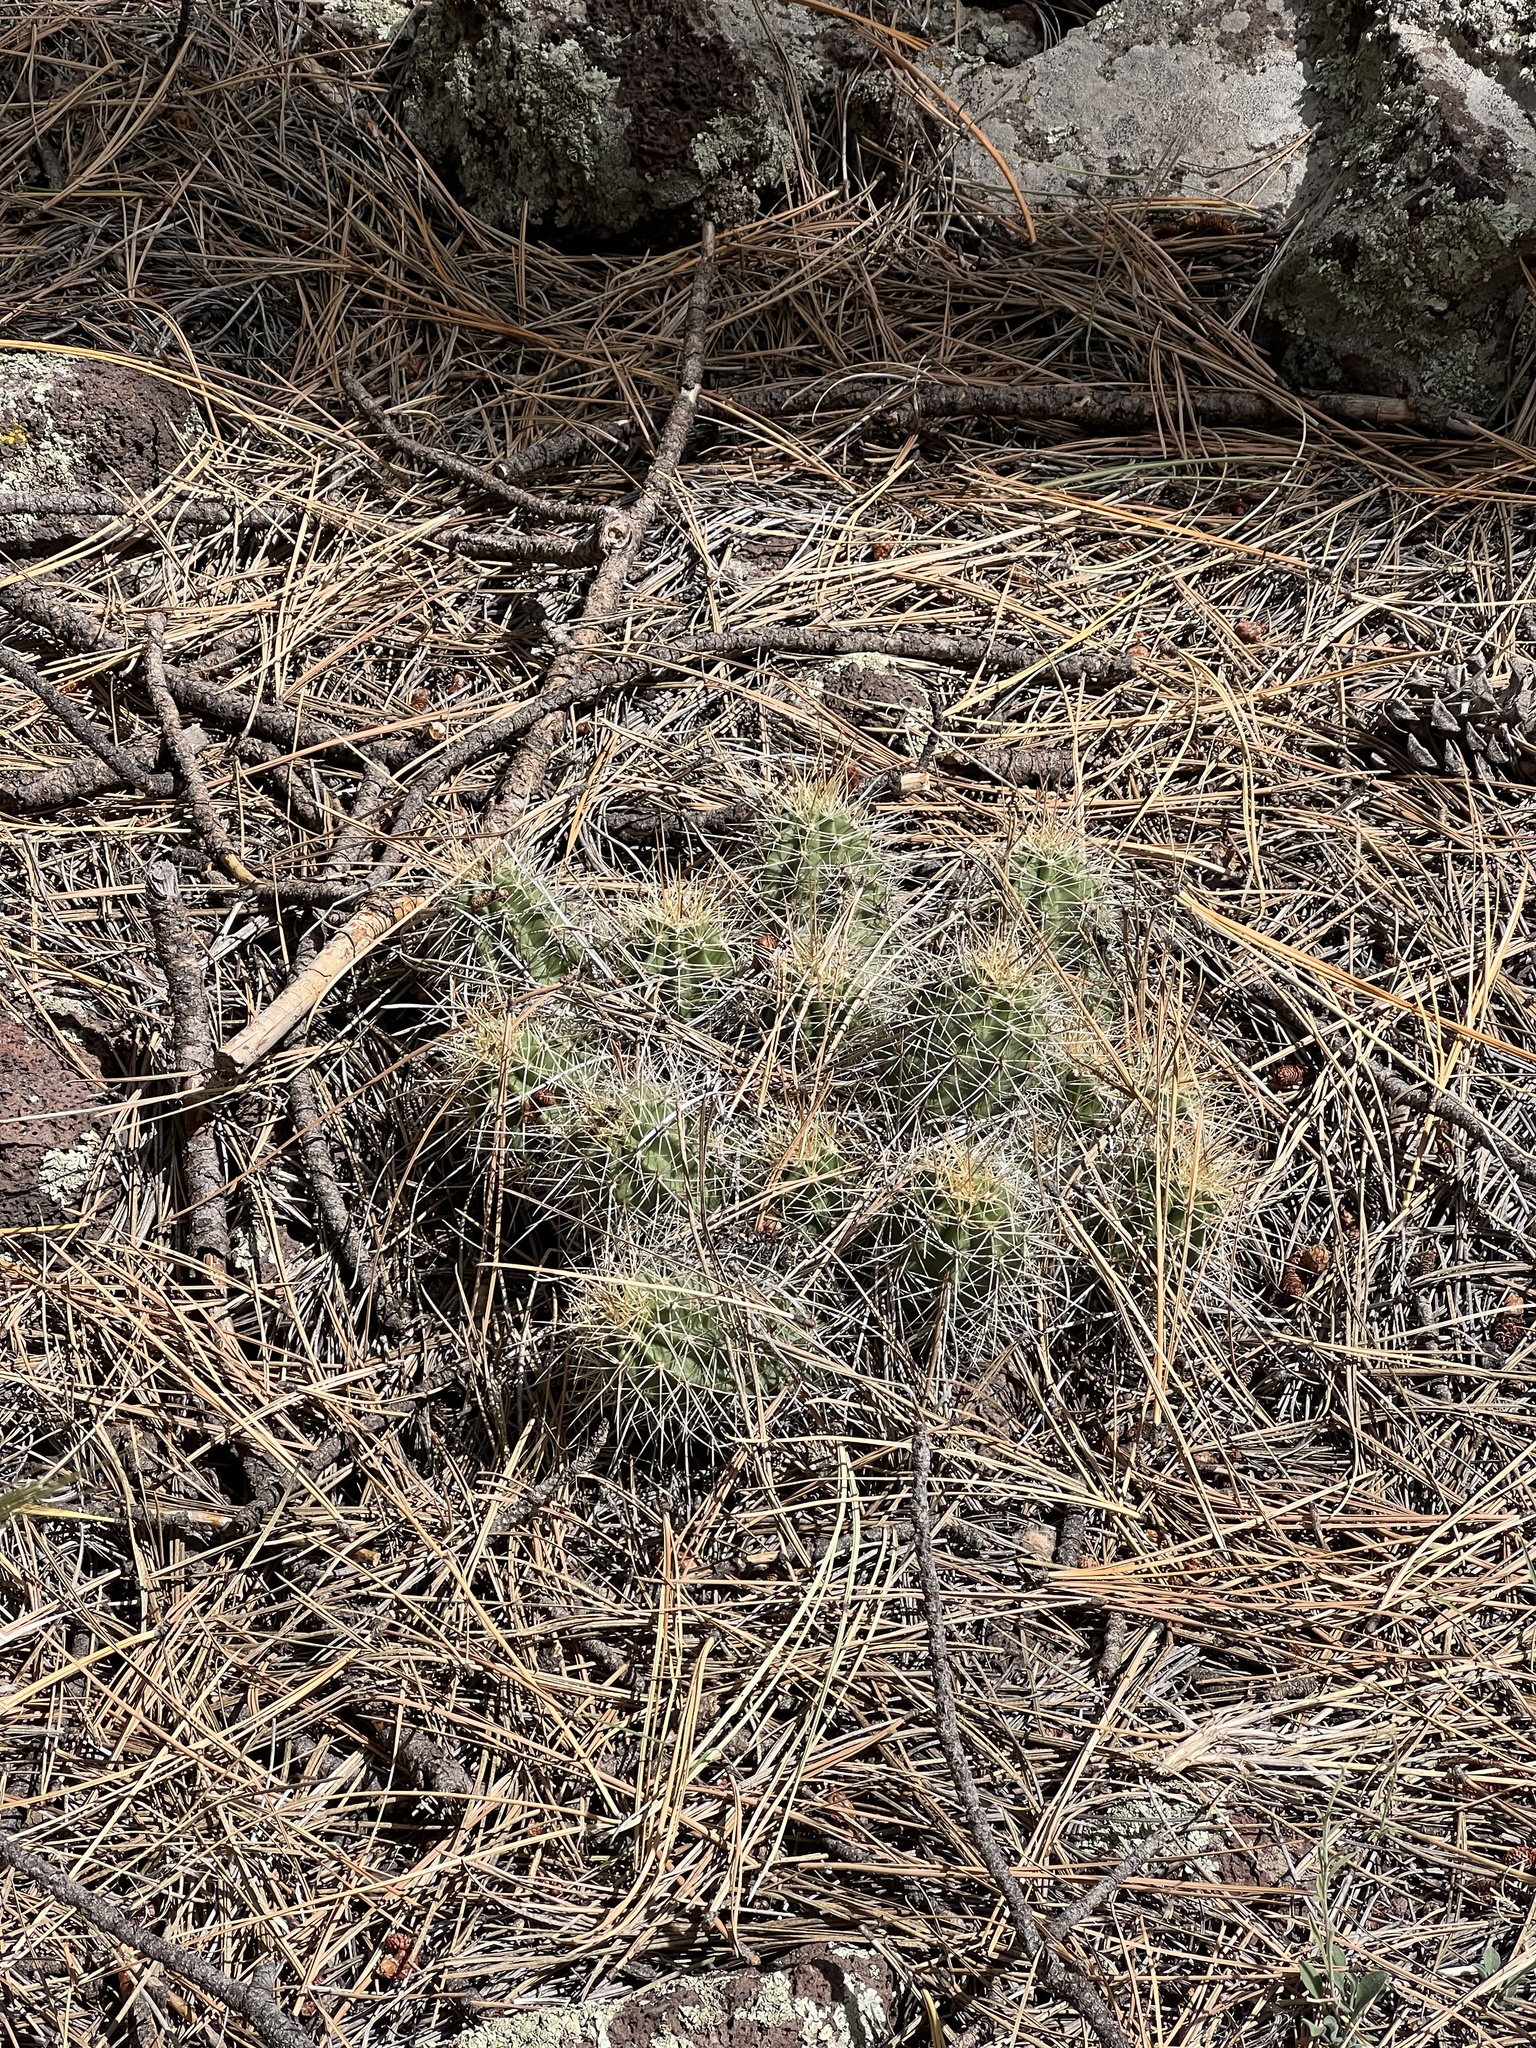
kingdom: Plantae
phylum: Tracheophyta
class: Magnoliopsida
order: Caryophyllales
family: Cactaceae
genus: Echinocereus
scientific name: Echinocereus bakeri
